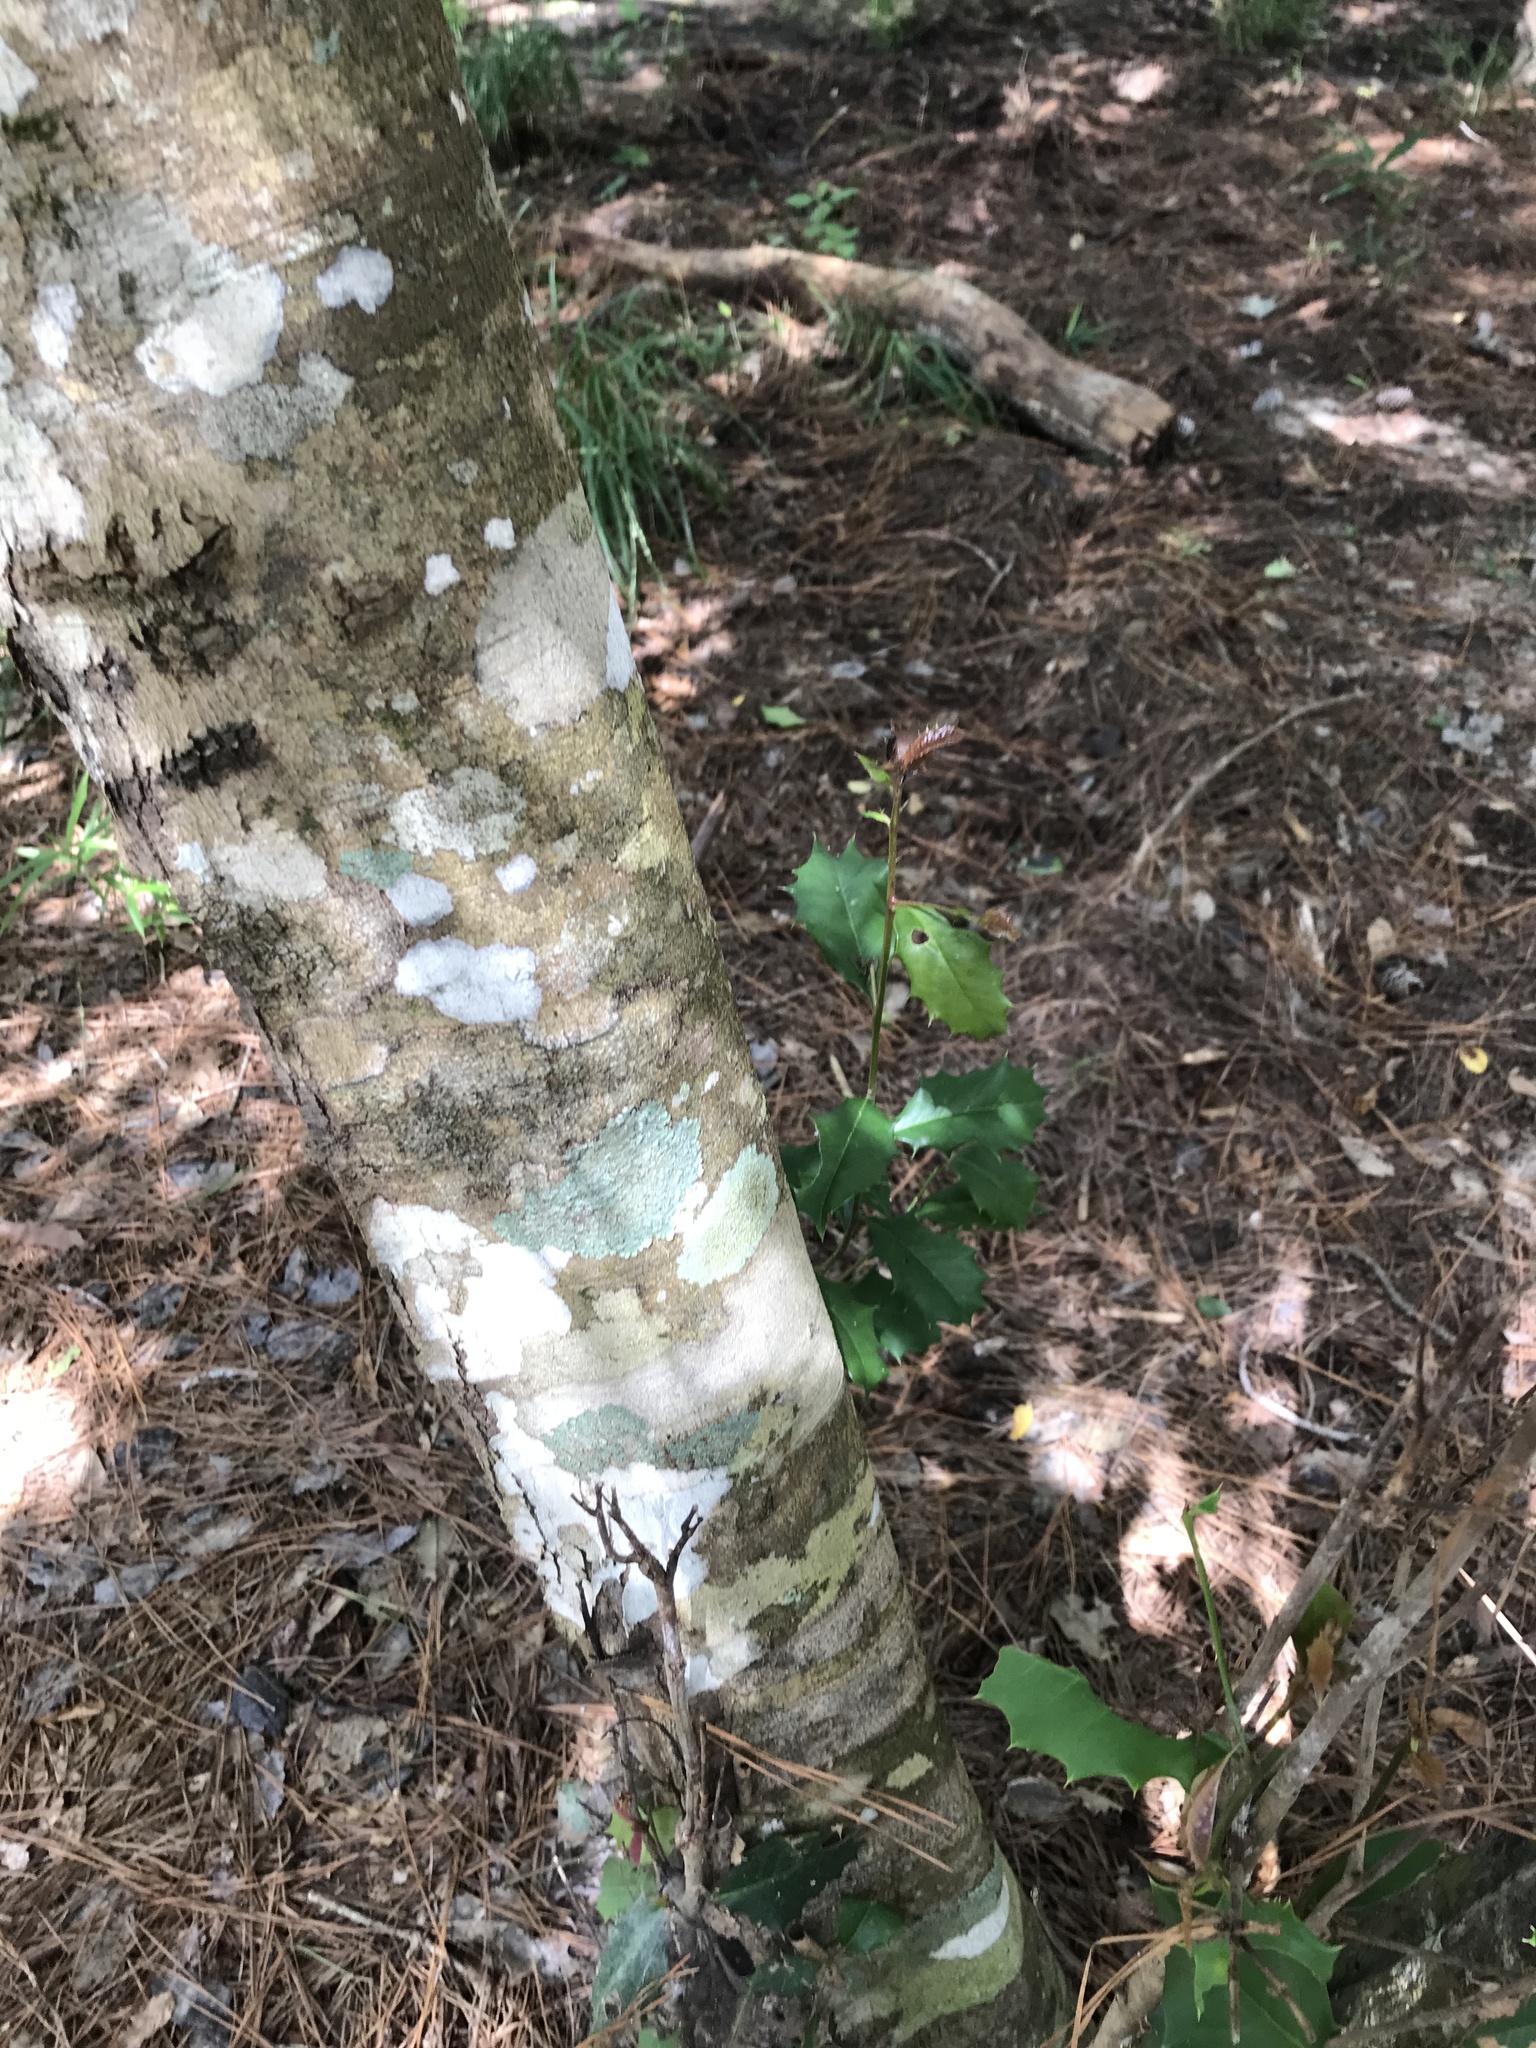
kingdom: Plantae
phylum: Tracheophyta
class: Magnoliopsida
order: Aquifoliales
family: Aquifoliaceae
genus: Ilex
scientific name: Ilex opaca
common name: American holly
